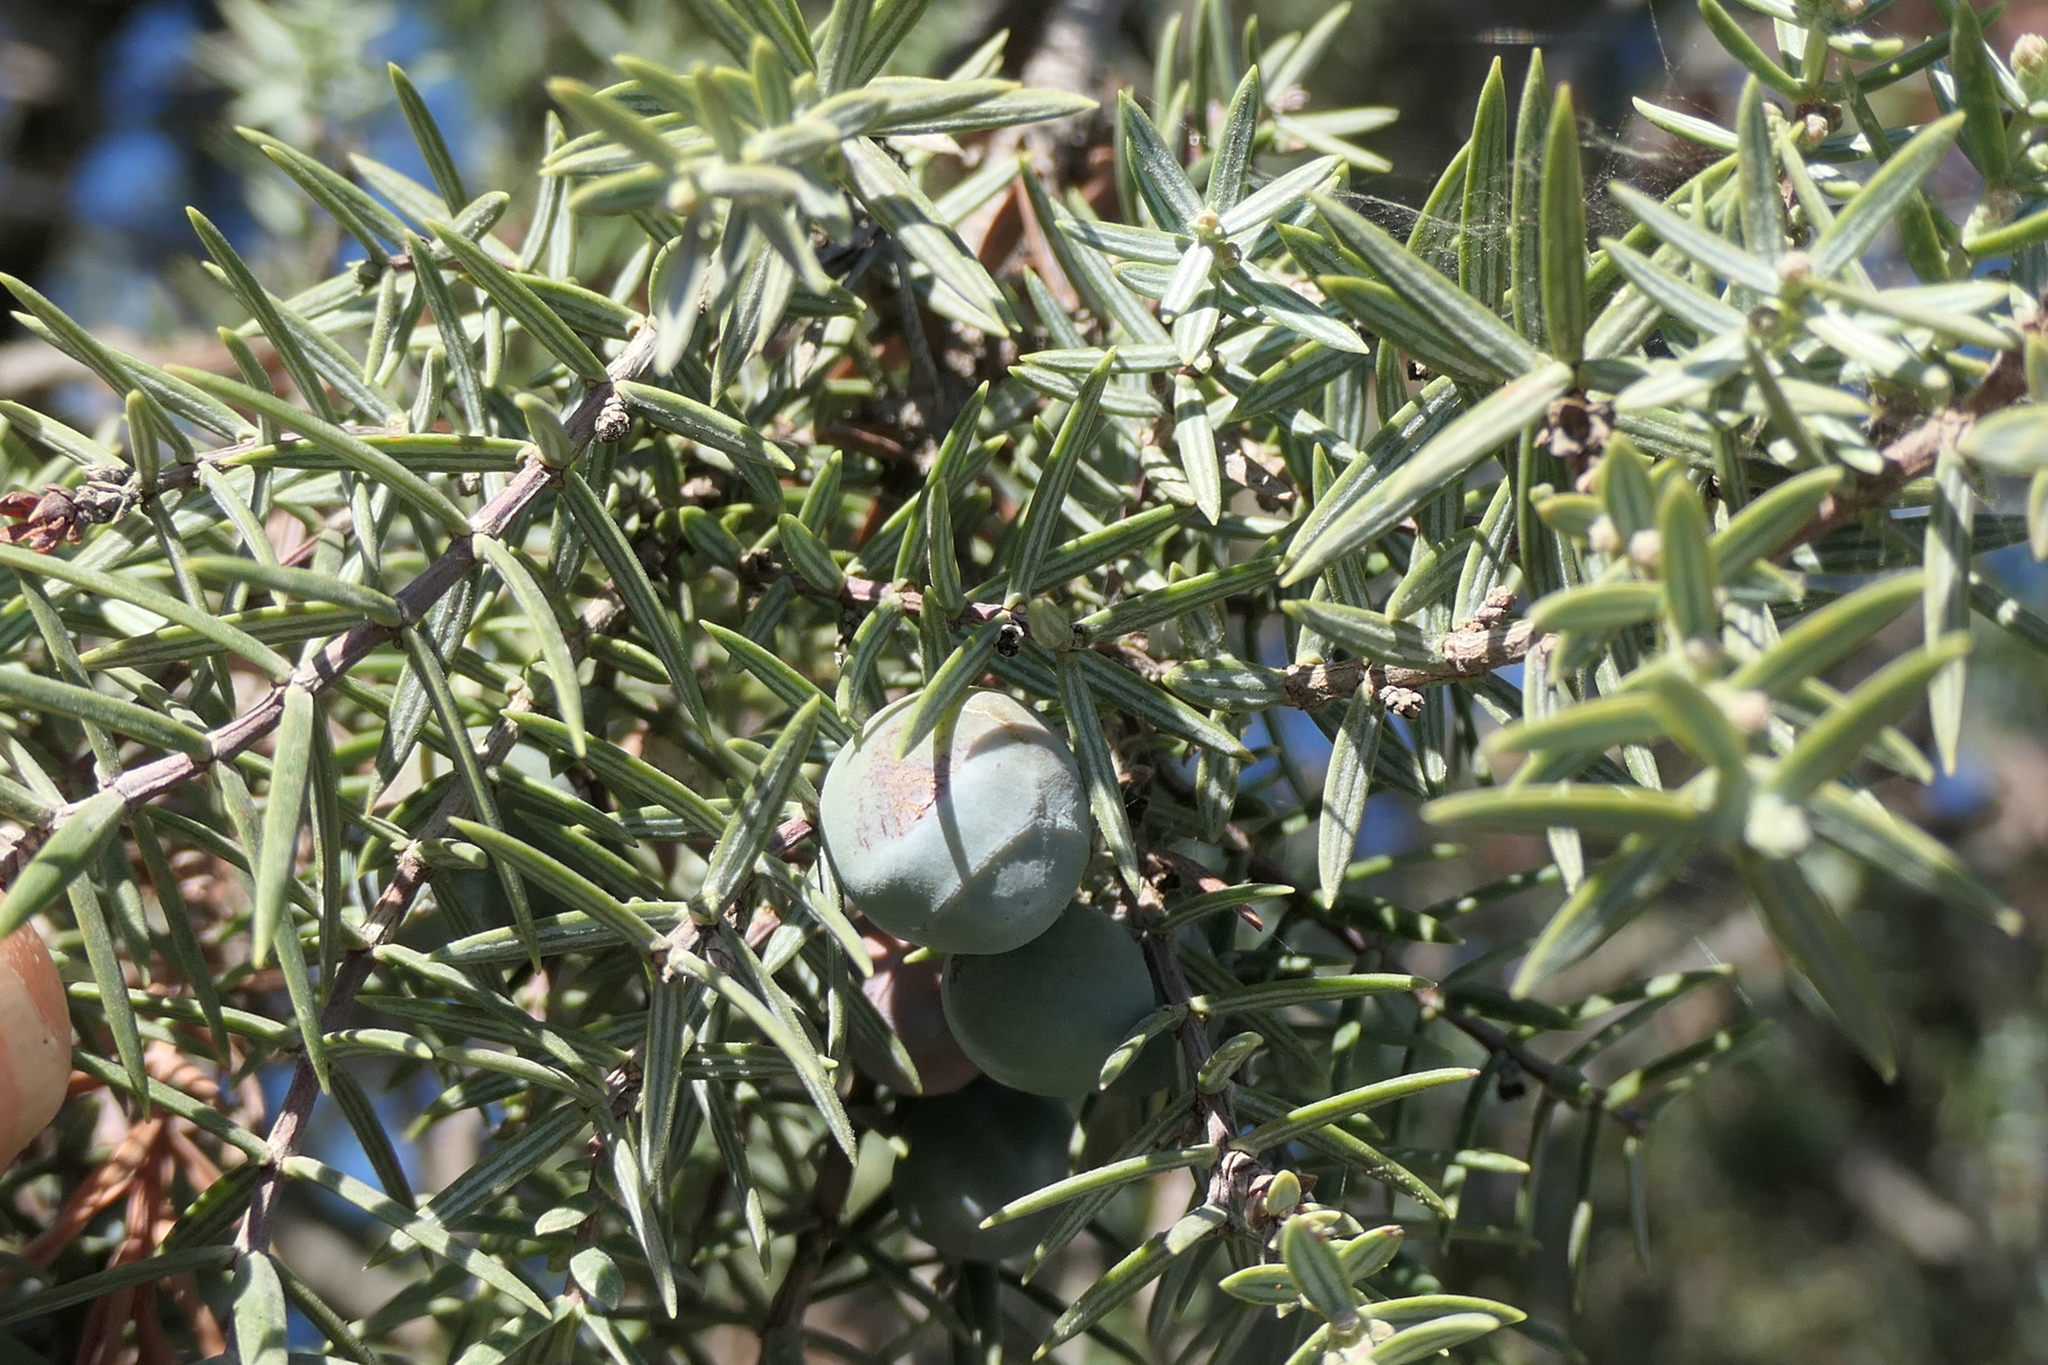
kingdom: Plantae
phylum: Tracheophyta
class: Pinopsida
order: Pinales
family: Cupressaceae
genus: Juniperus
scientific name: Juniperus oxycedrus
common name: Prickly juniper
